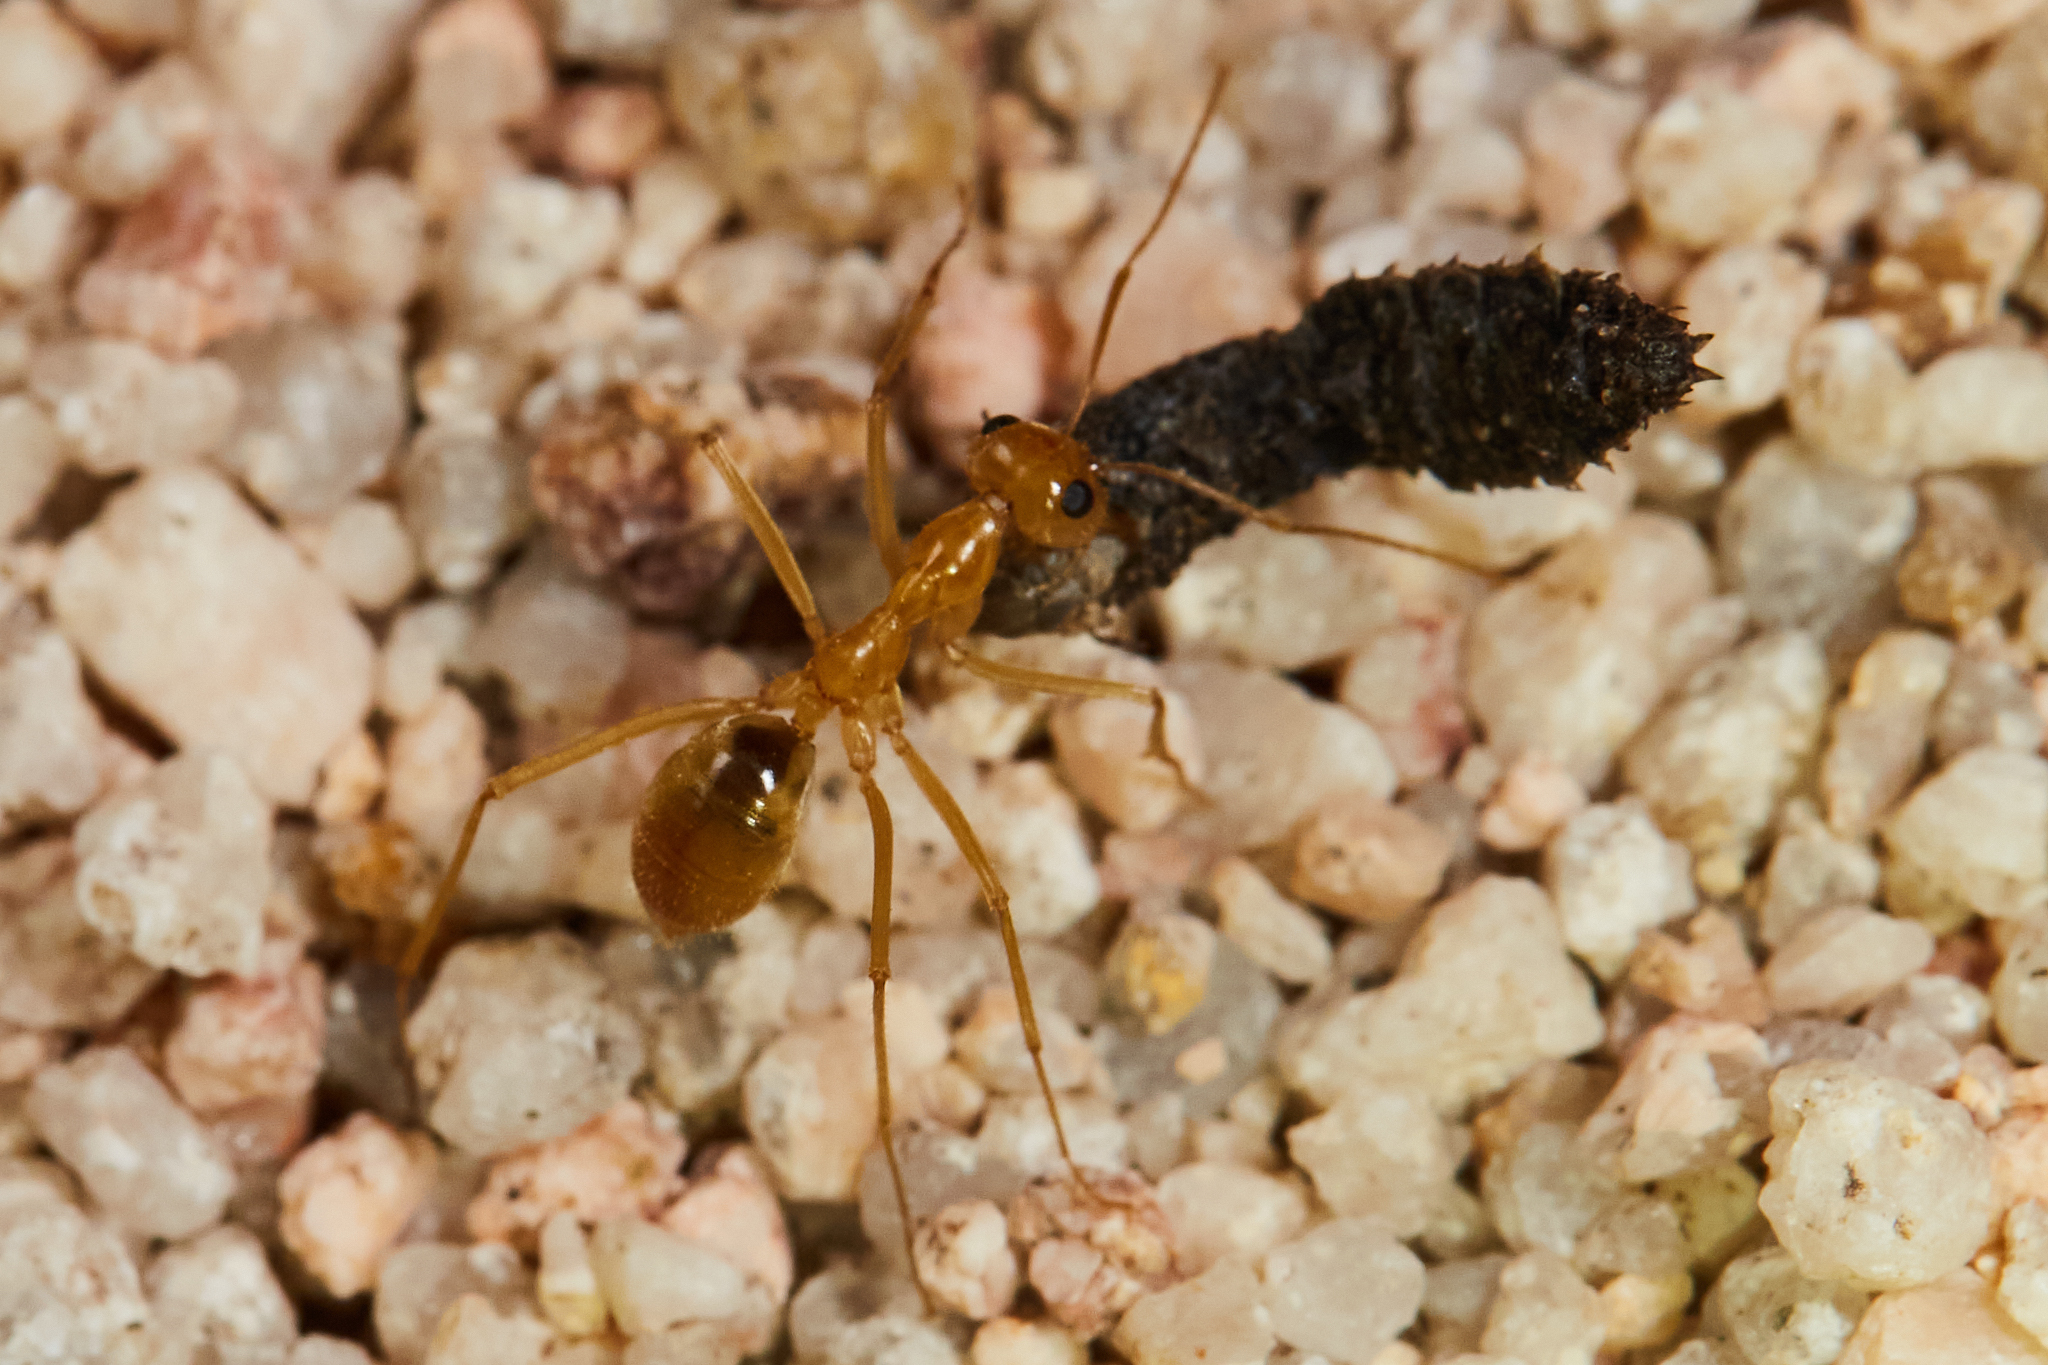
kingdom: Animalia
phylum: Arthropoda
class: Insecta
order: Hymenoptera
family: Formicidae
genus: Myrmecocystus
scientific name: Myrmecocystus mexicanus
